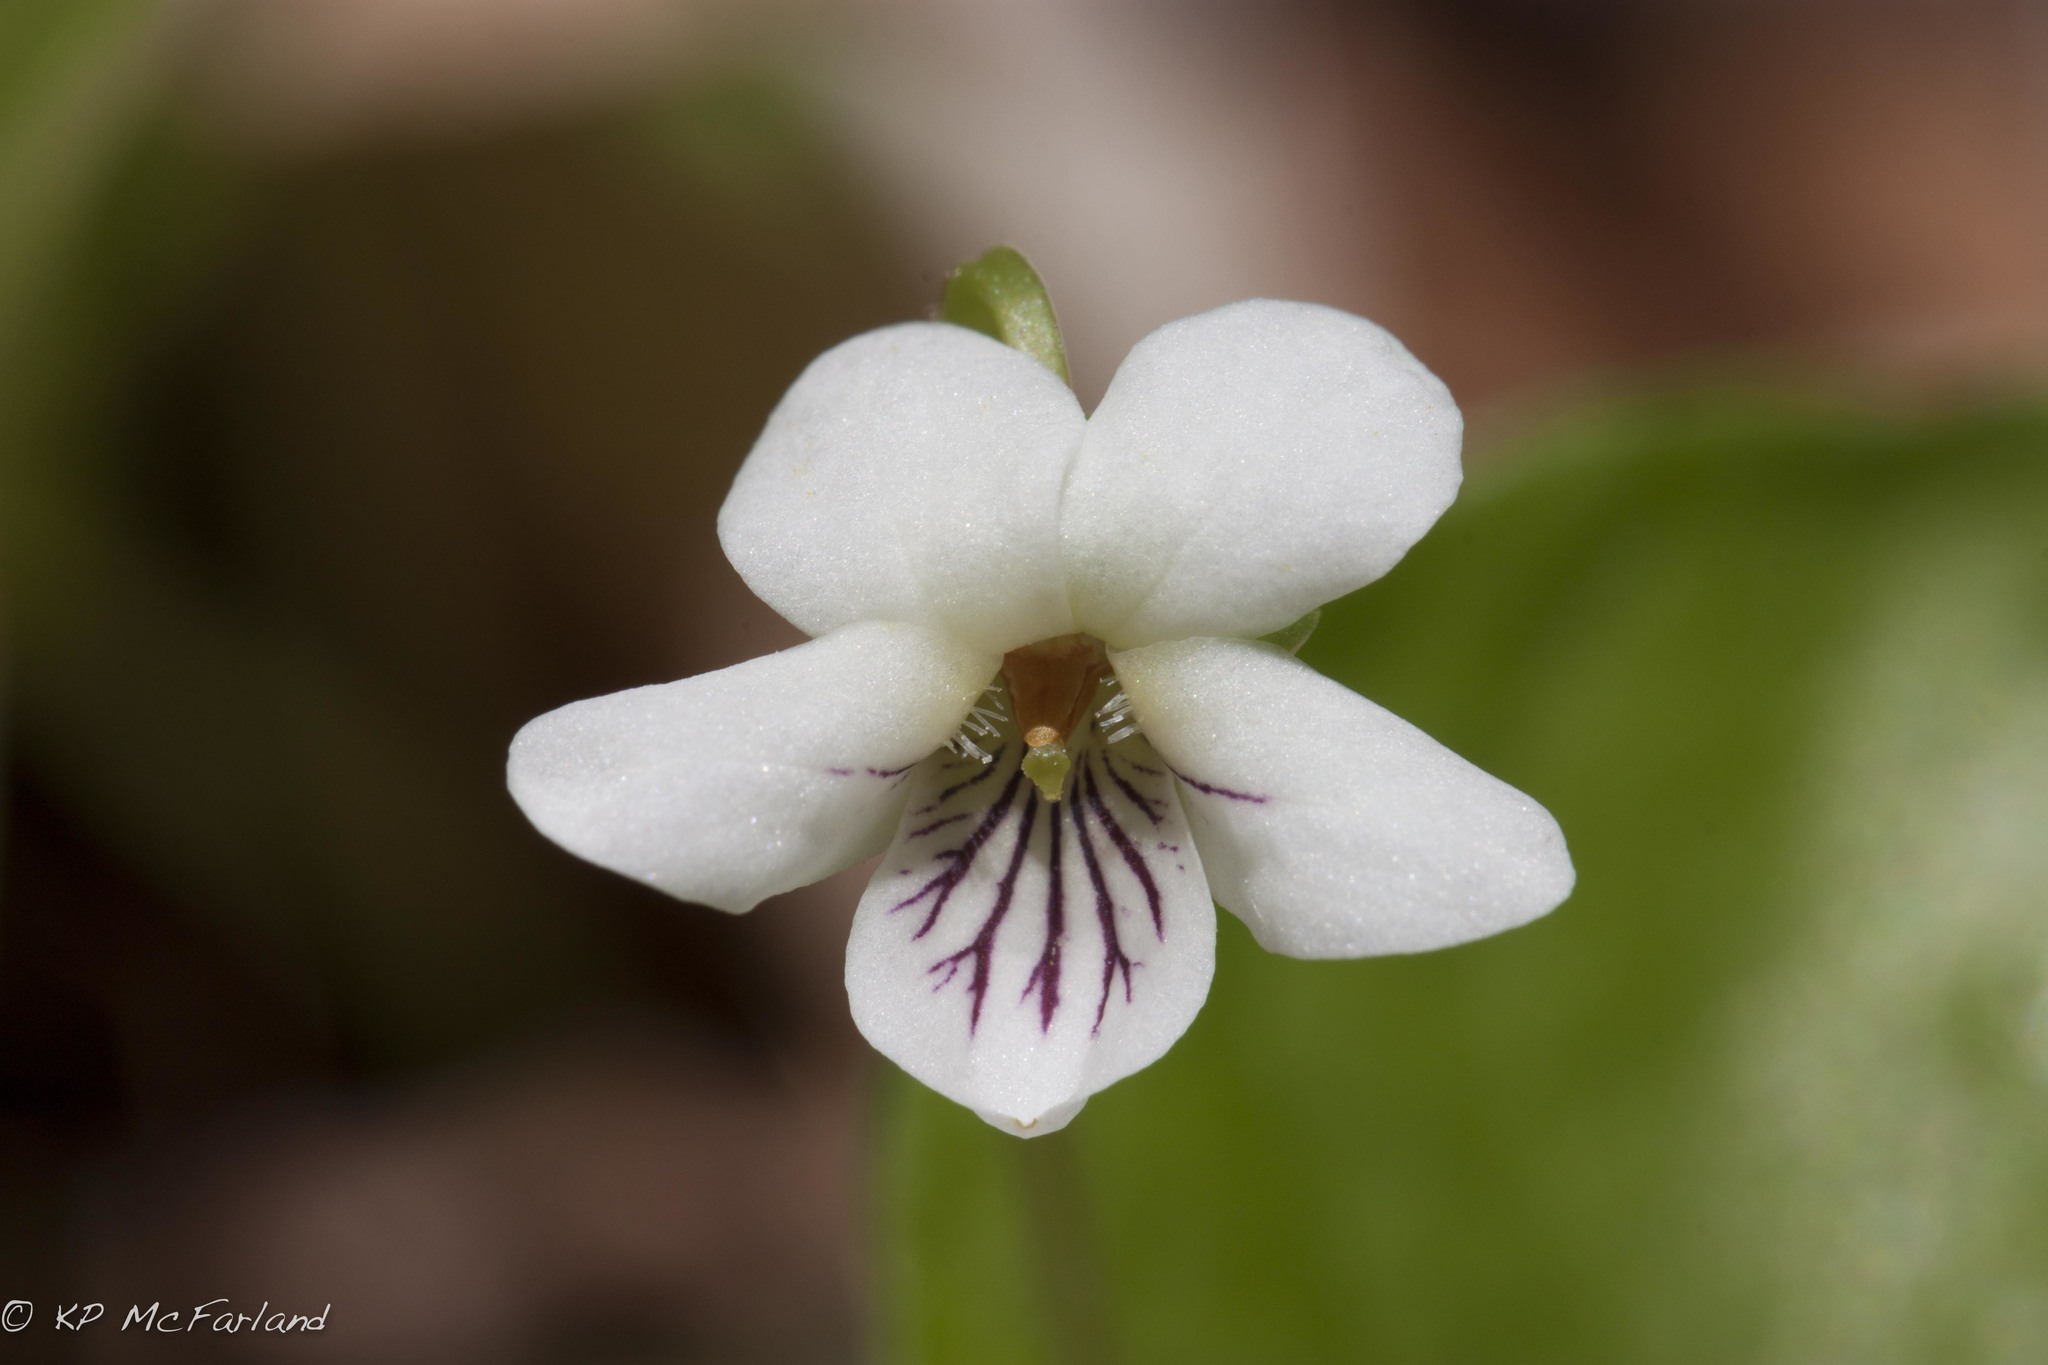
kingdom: Plantae
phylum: Tracheophyta
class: Magnoliopsida
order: Malpighiales
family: Violaceae
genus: Viola
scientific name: Viola minuscula
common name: Northern white violet
